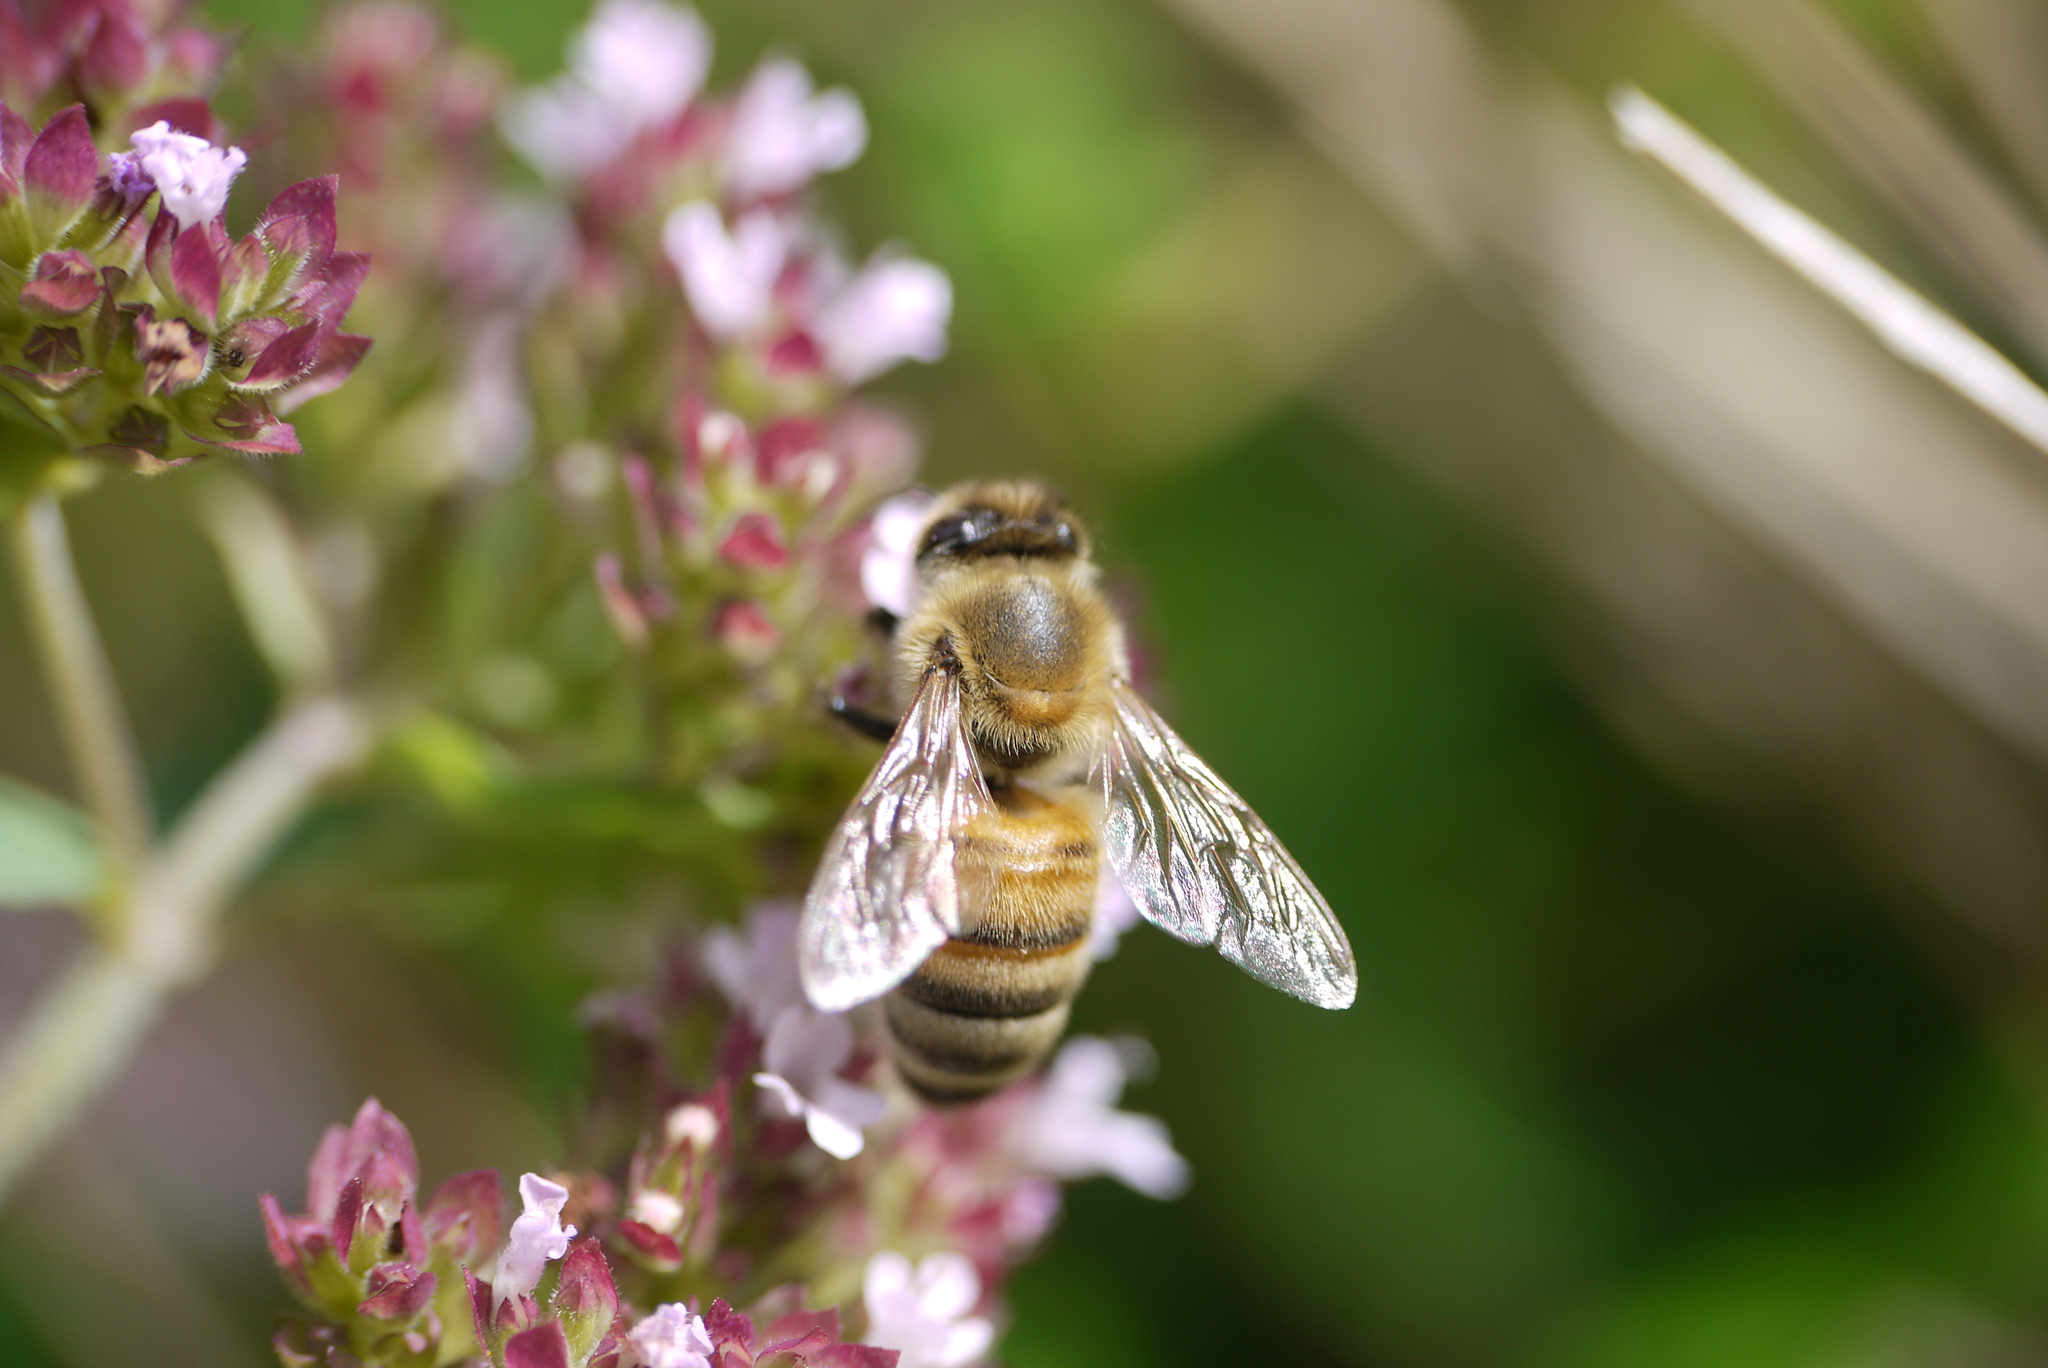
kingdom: Animalia
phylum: Arthropoda
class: Insecta
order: Hymenoptera
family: Apidae
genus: Apis
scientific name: Apis mellifera
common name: Honey bee
